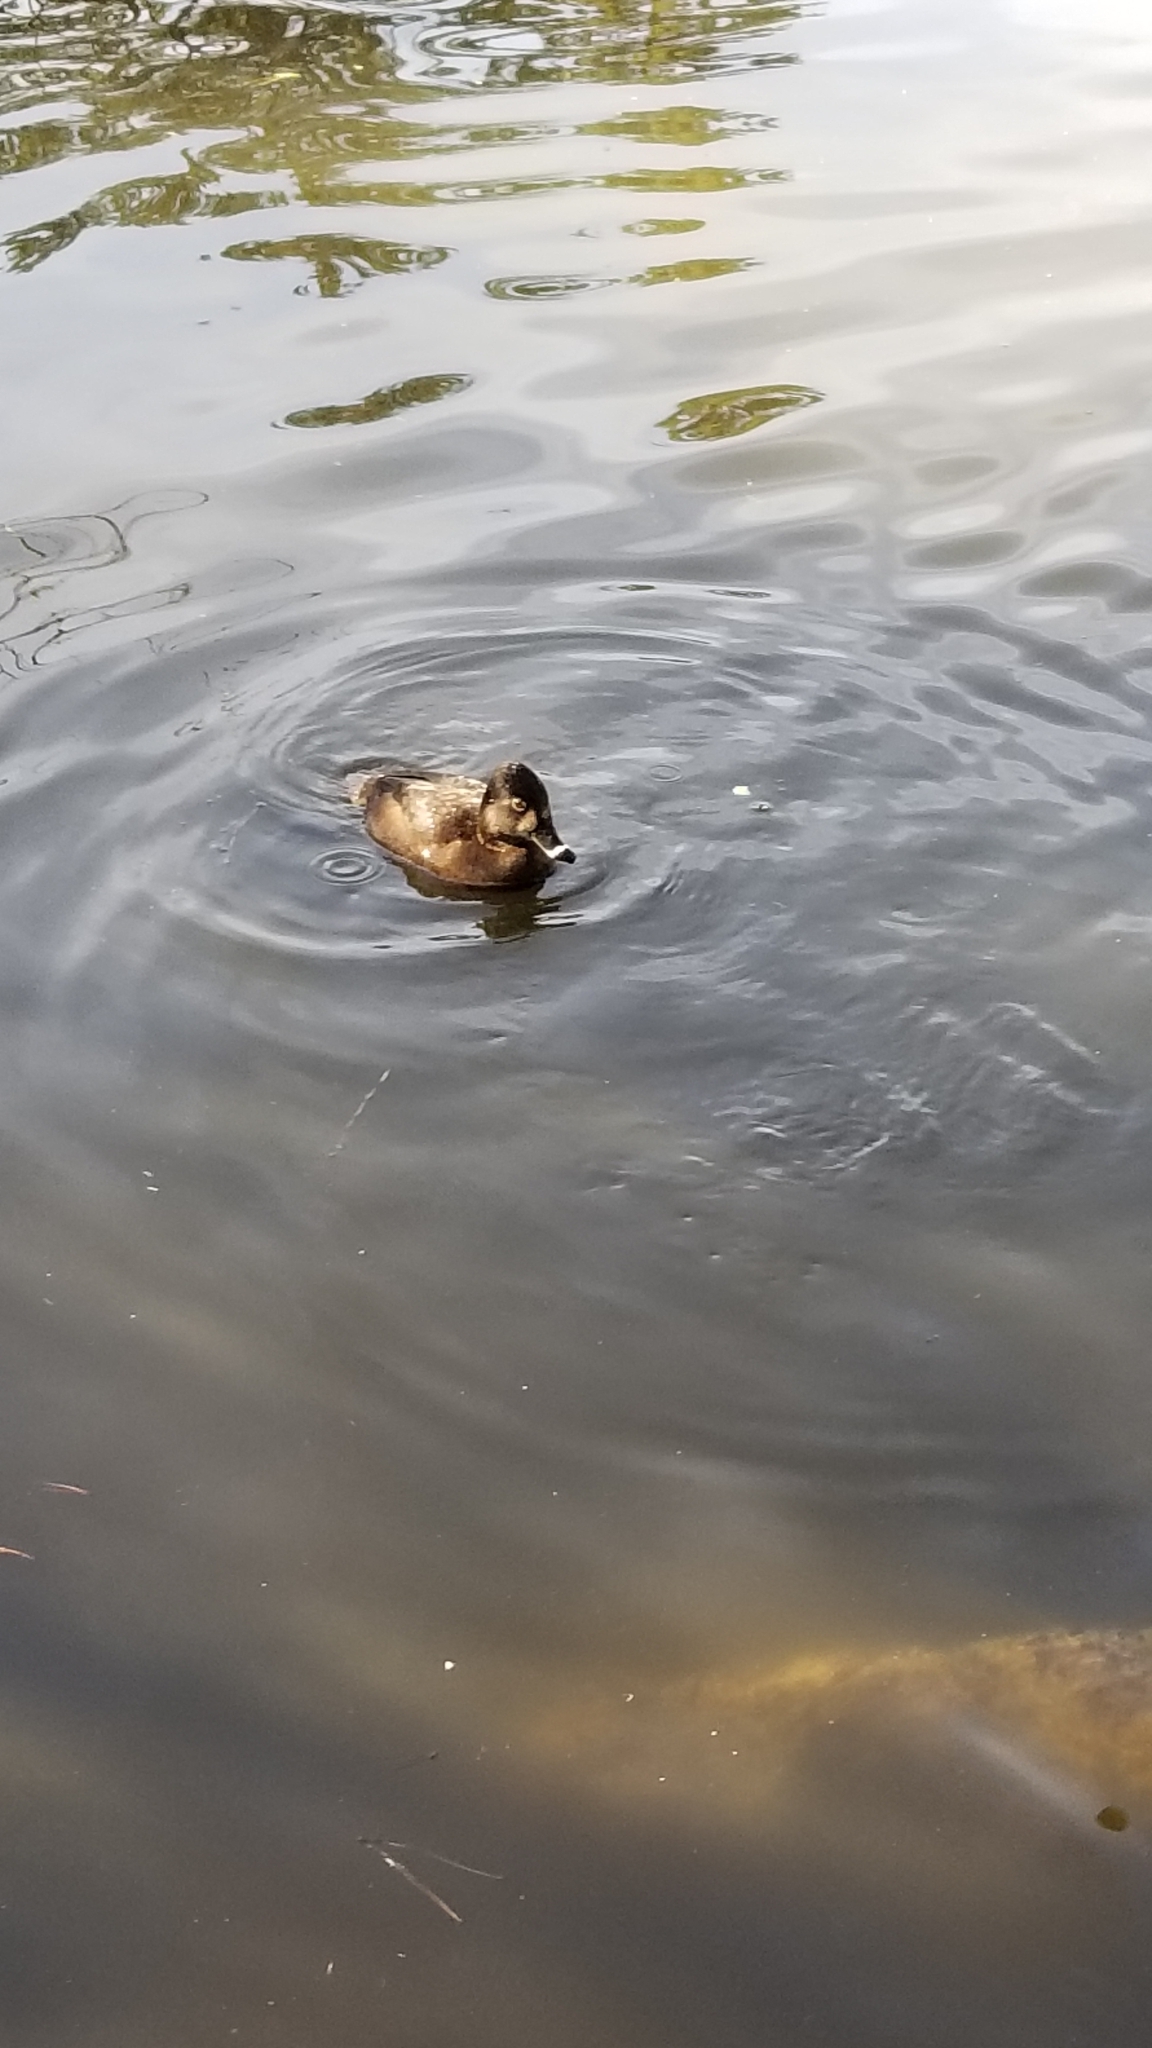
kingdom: Animalia
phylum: Chordata
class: Aves
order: Anseriformes
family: Anatidae
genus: Aythya
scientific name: Aythya collaris
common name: Ring-necked duck
